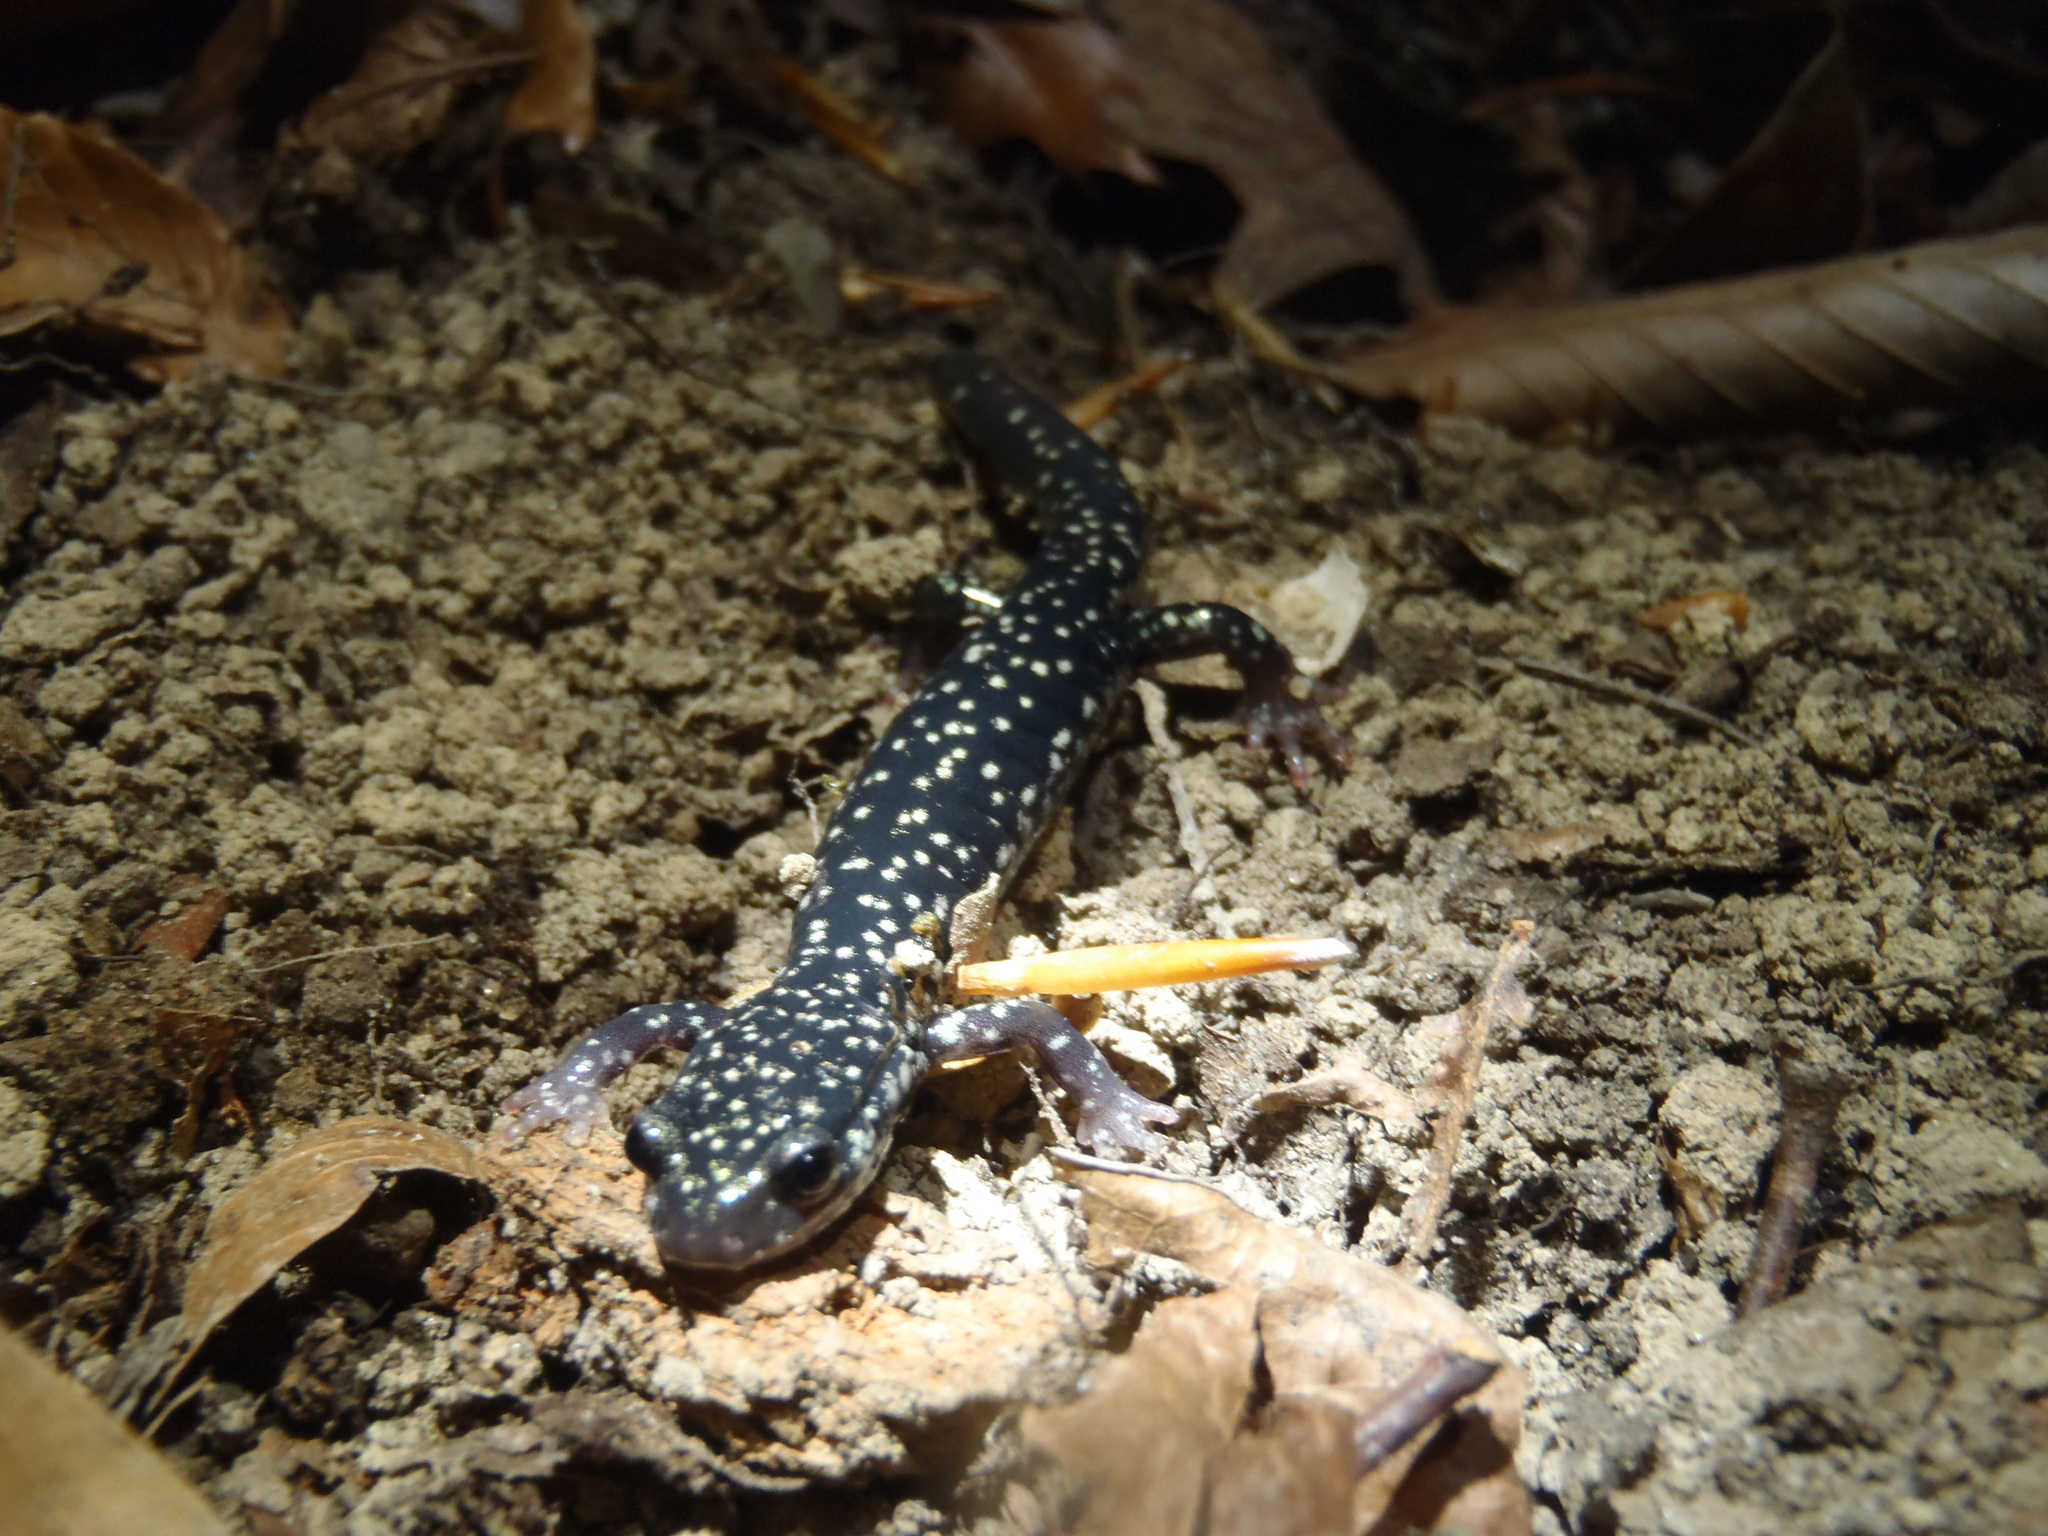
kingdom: Animalia
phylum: Chordata
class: Amphibia
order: Caudata
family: Plethodontidae
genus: Plethodon
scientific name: Plethodon glutinosus
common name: Northern slimy salamander
